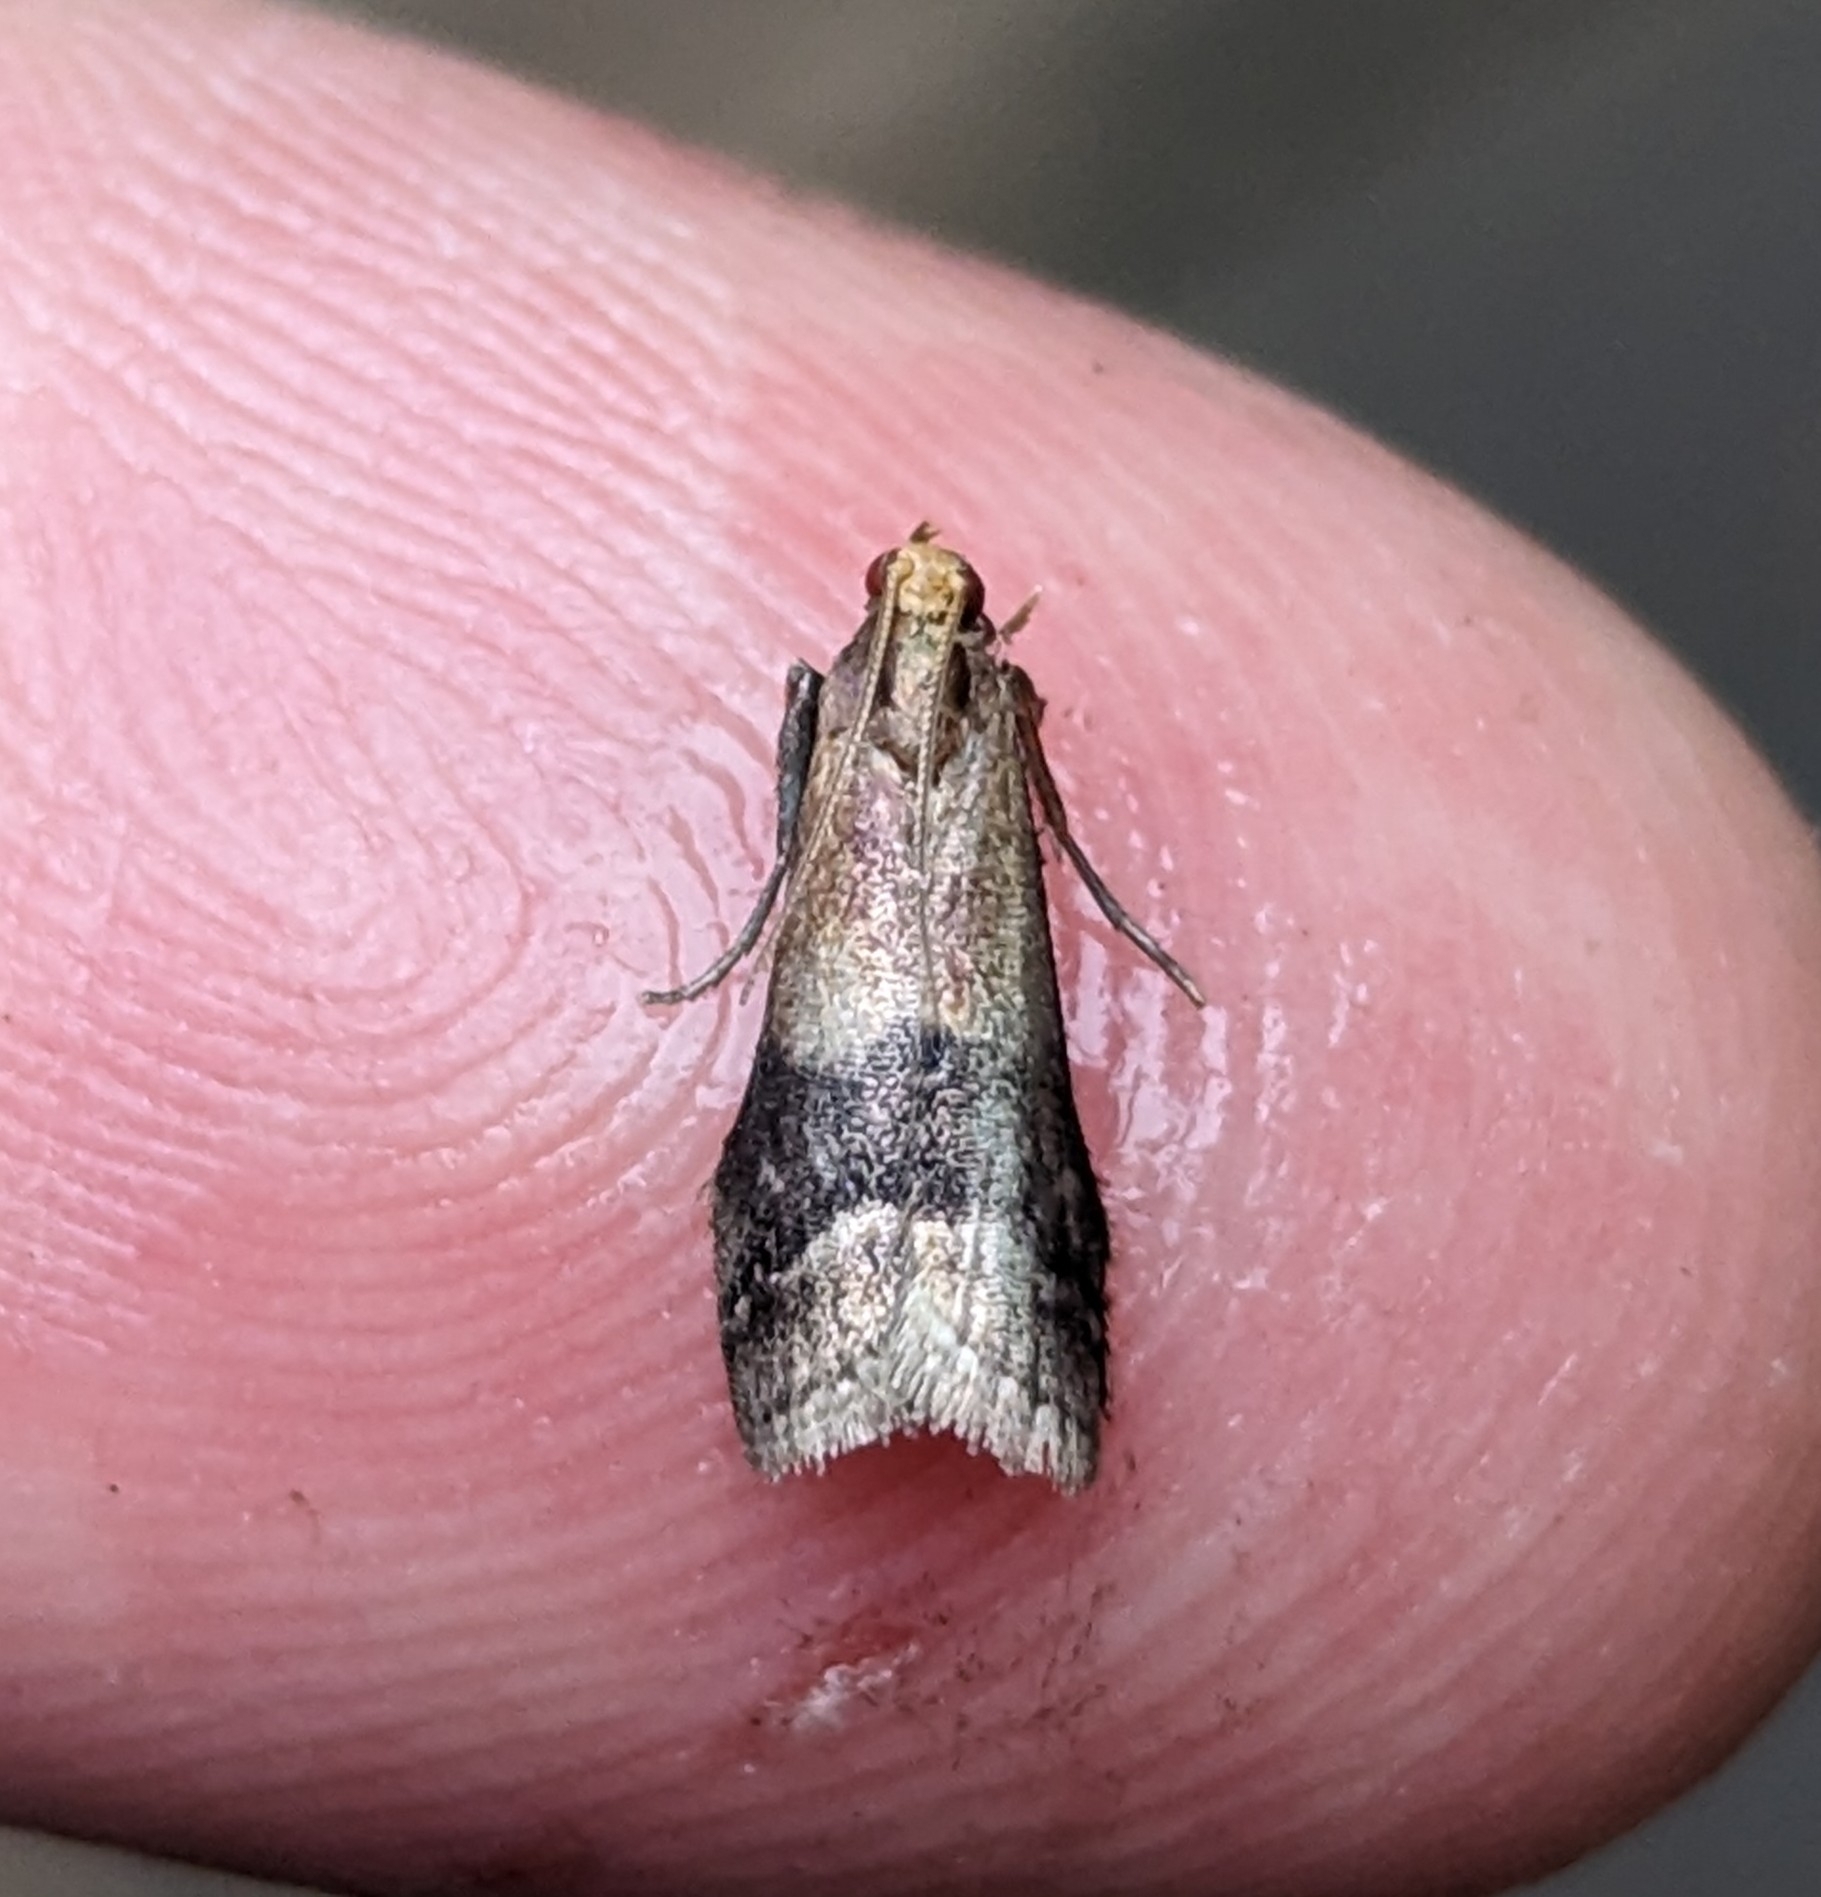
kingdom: Animalia
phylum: Arthropoda
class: Insecta
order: Lepidoptera
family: Pyralidae
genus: Eulogia
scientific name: Eulogia ochrifrontella
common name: Broad-banded eulogia moth
